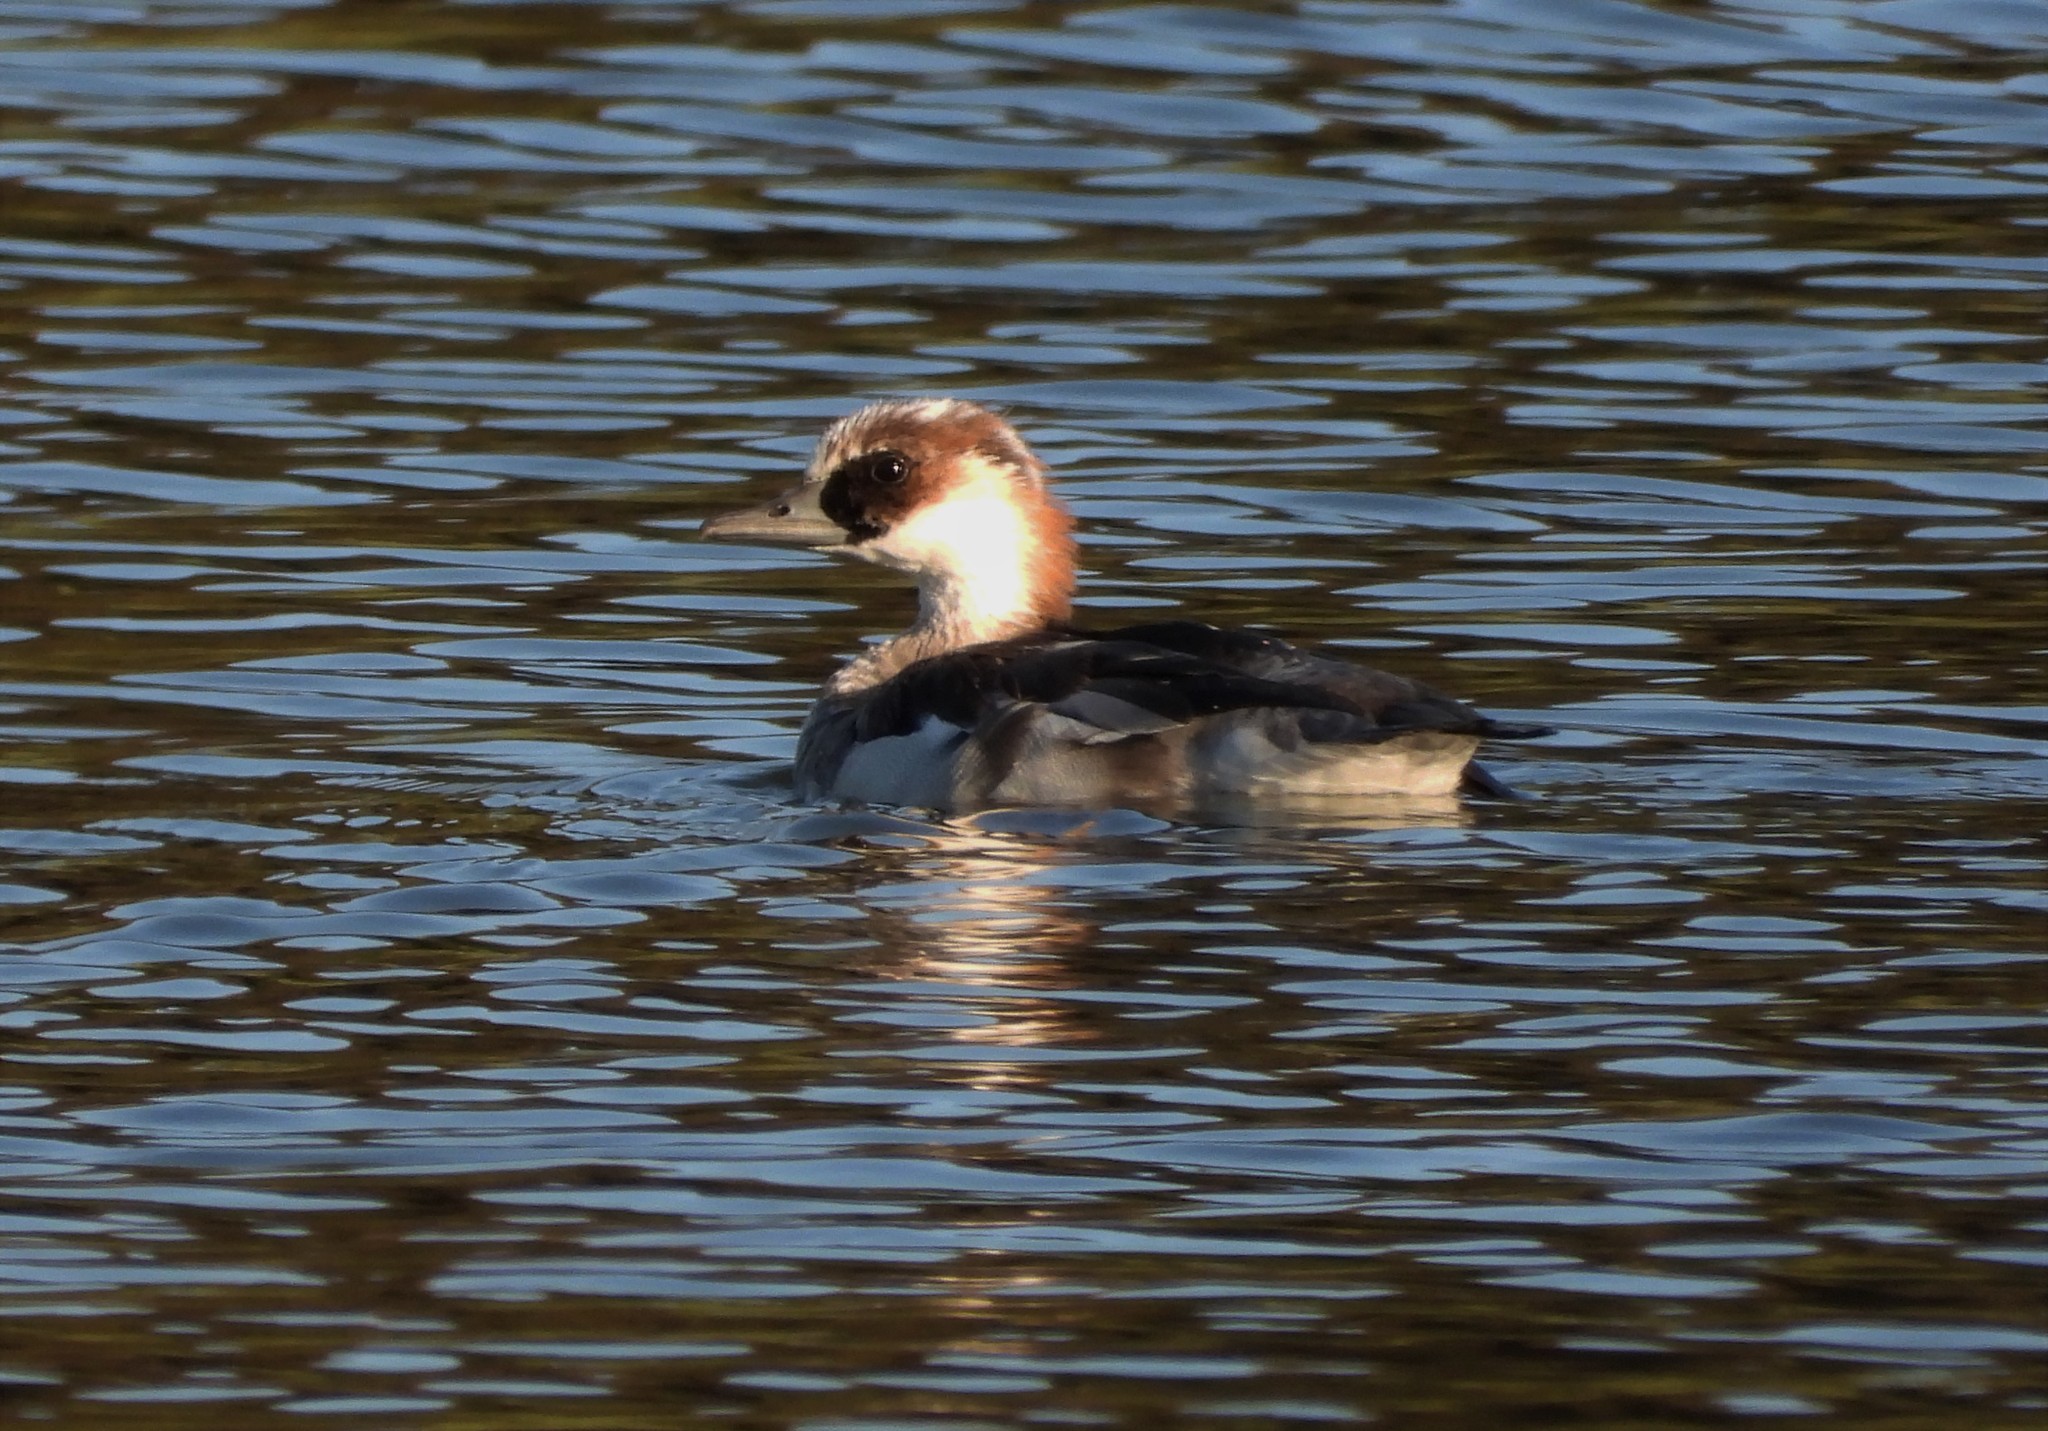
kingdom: Animalia
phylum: Chordata
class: Aves
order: Anseriformes
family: Anatidae
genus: Mergellus
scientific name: Mergellus albellus
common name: Smew
